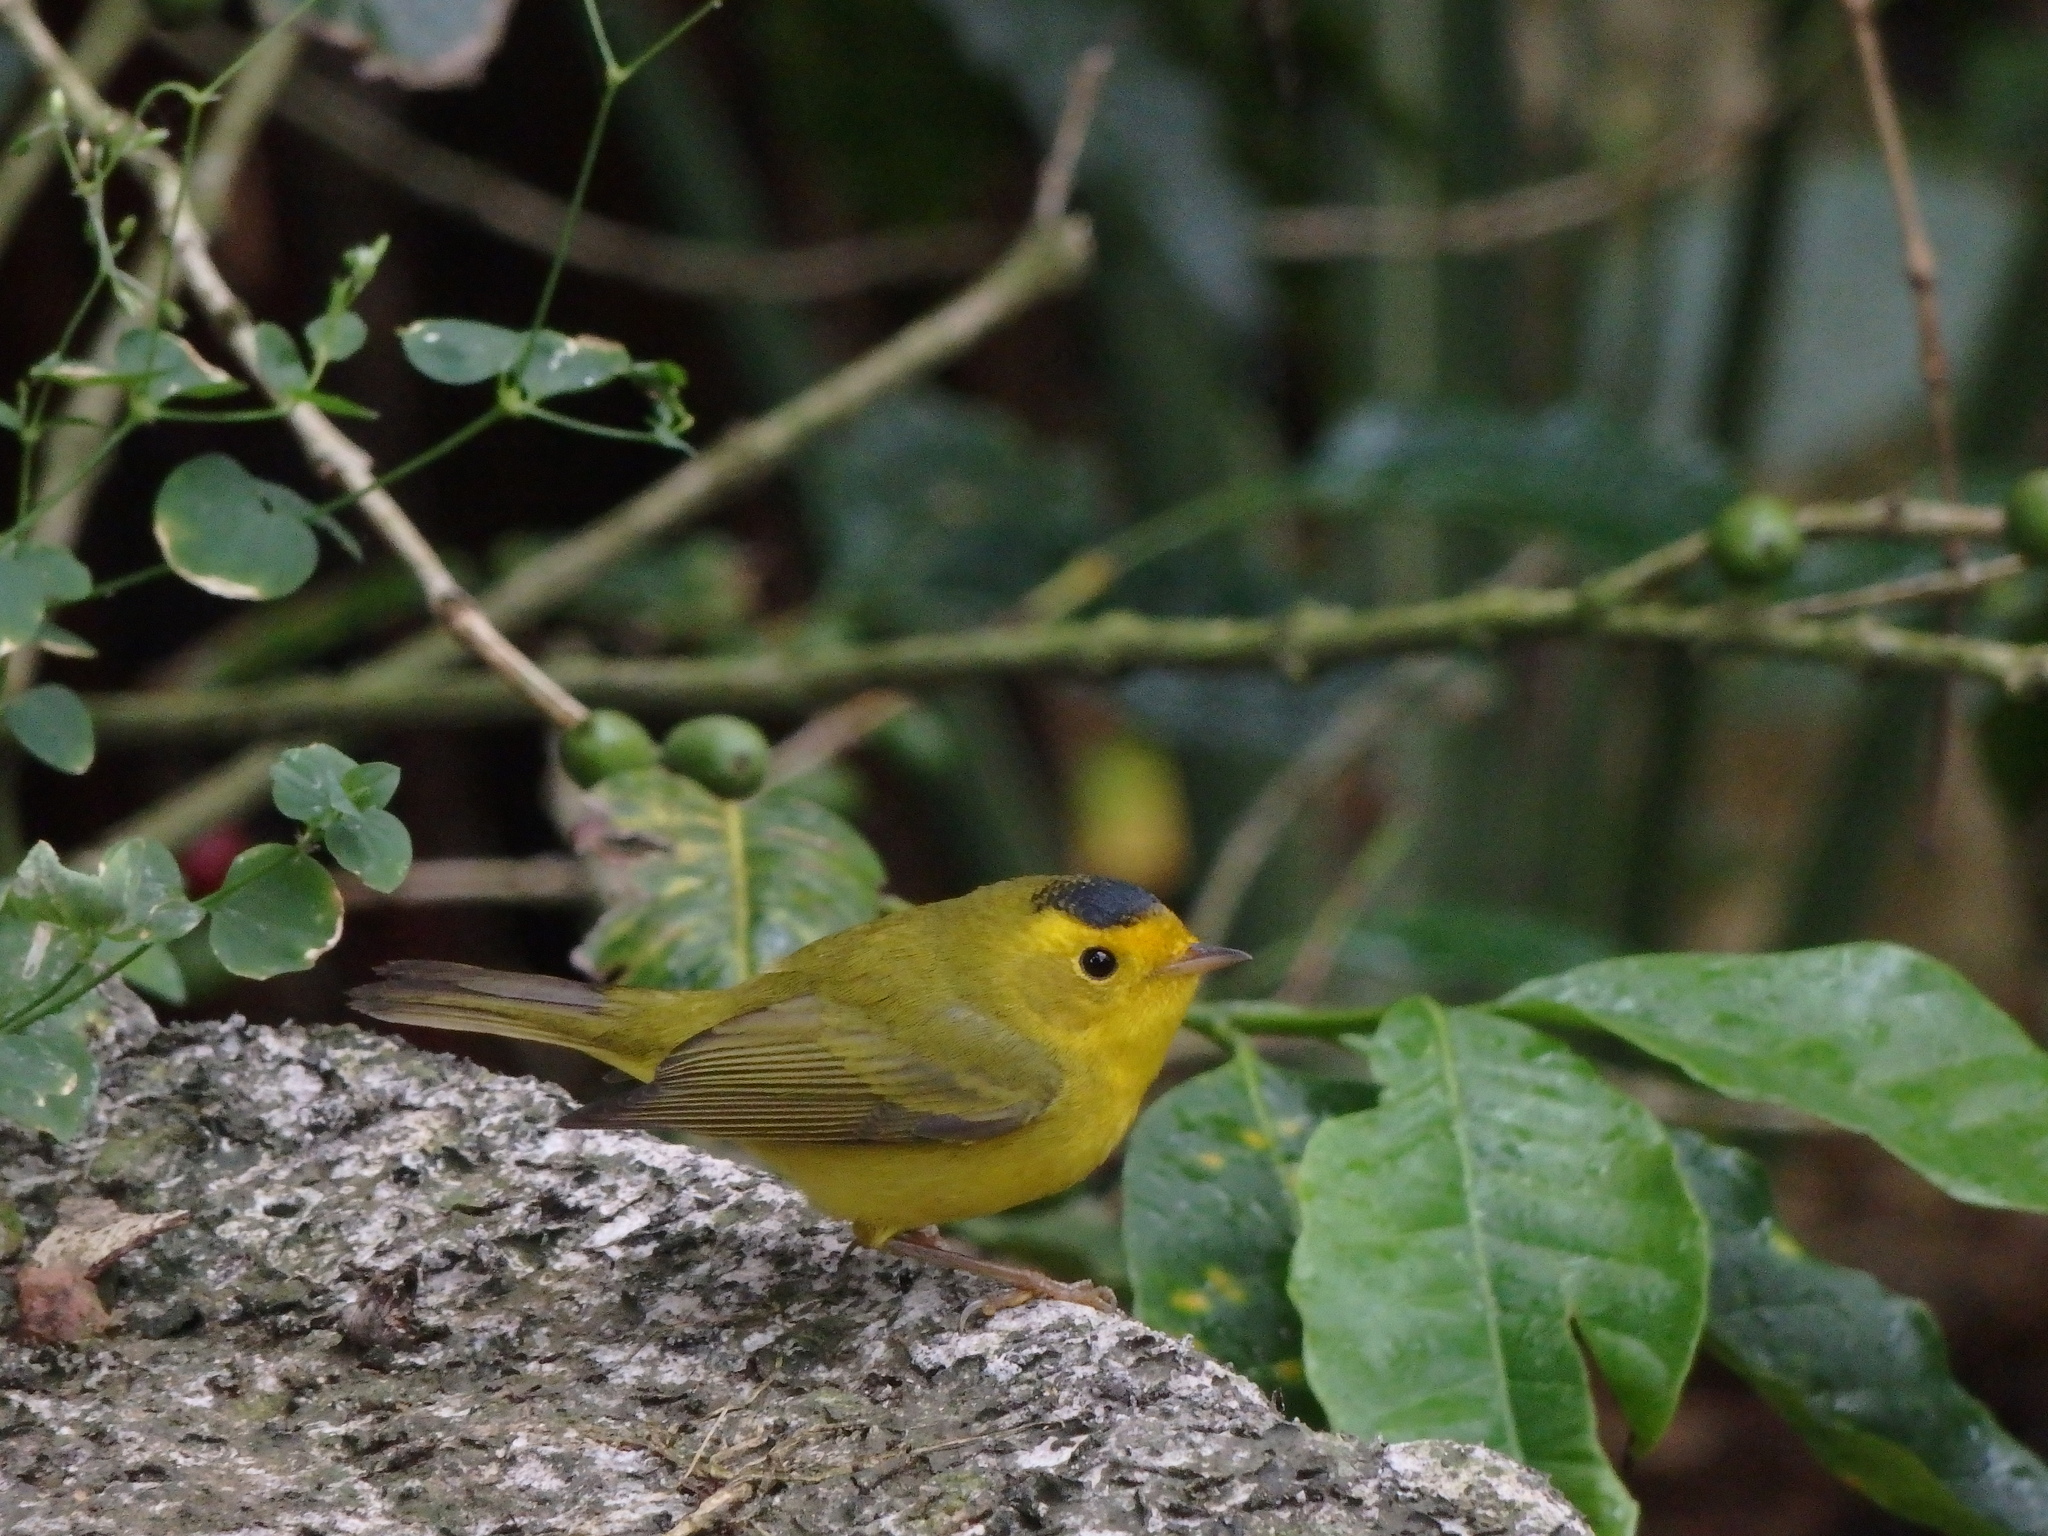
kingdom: Animalia
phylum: Chordata
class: Aves
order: Passeriformes
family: Parulidae
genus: Cardellina
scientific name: Cardellina pusilla
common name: Wilson's warbler
